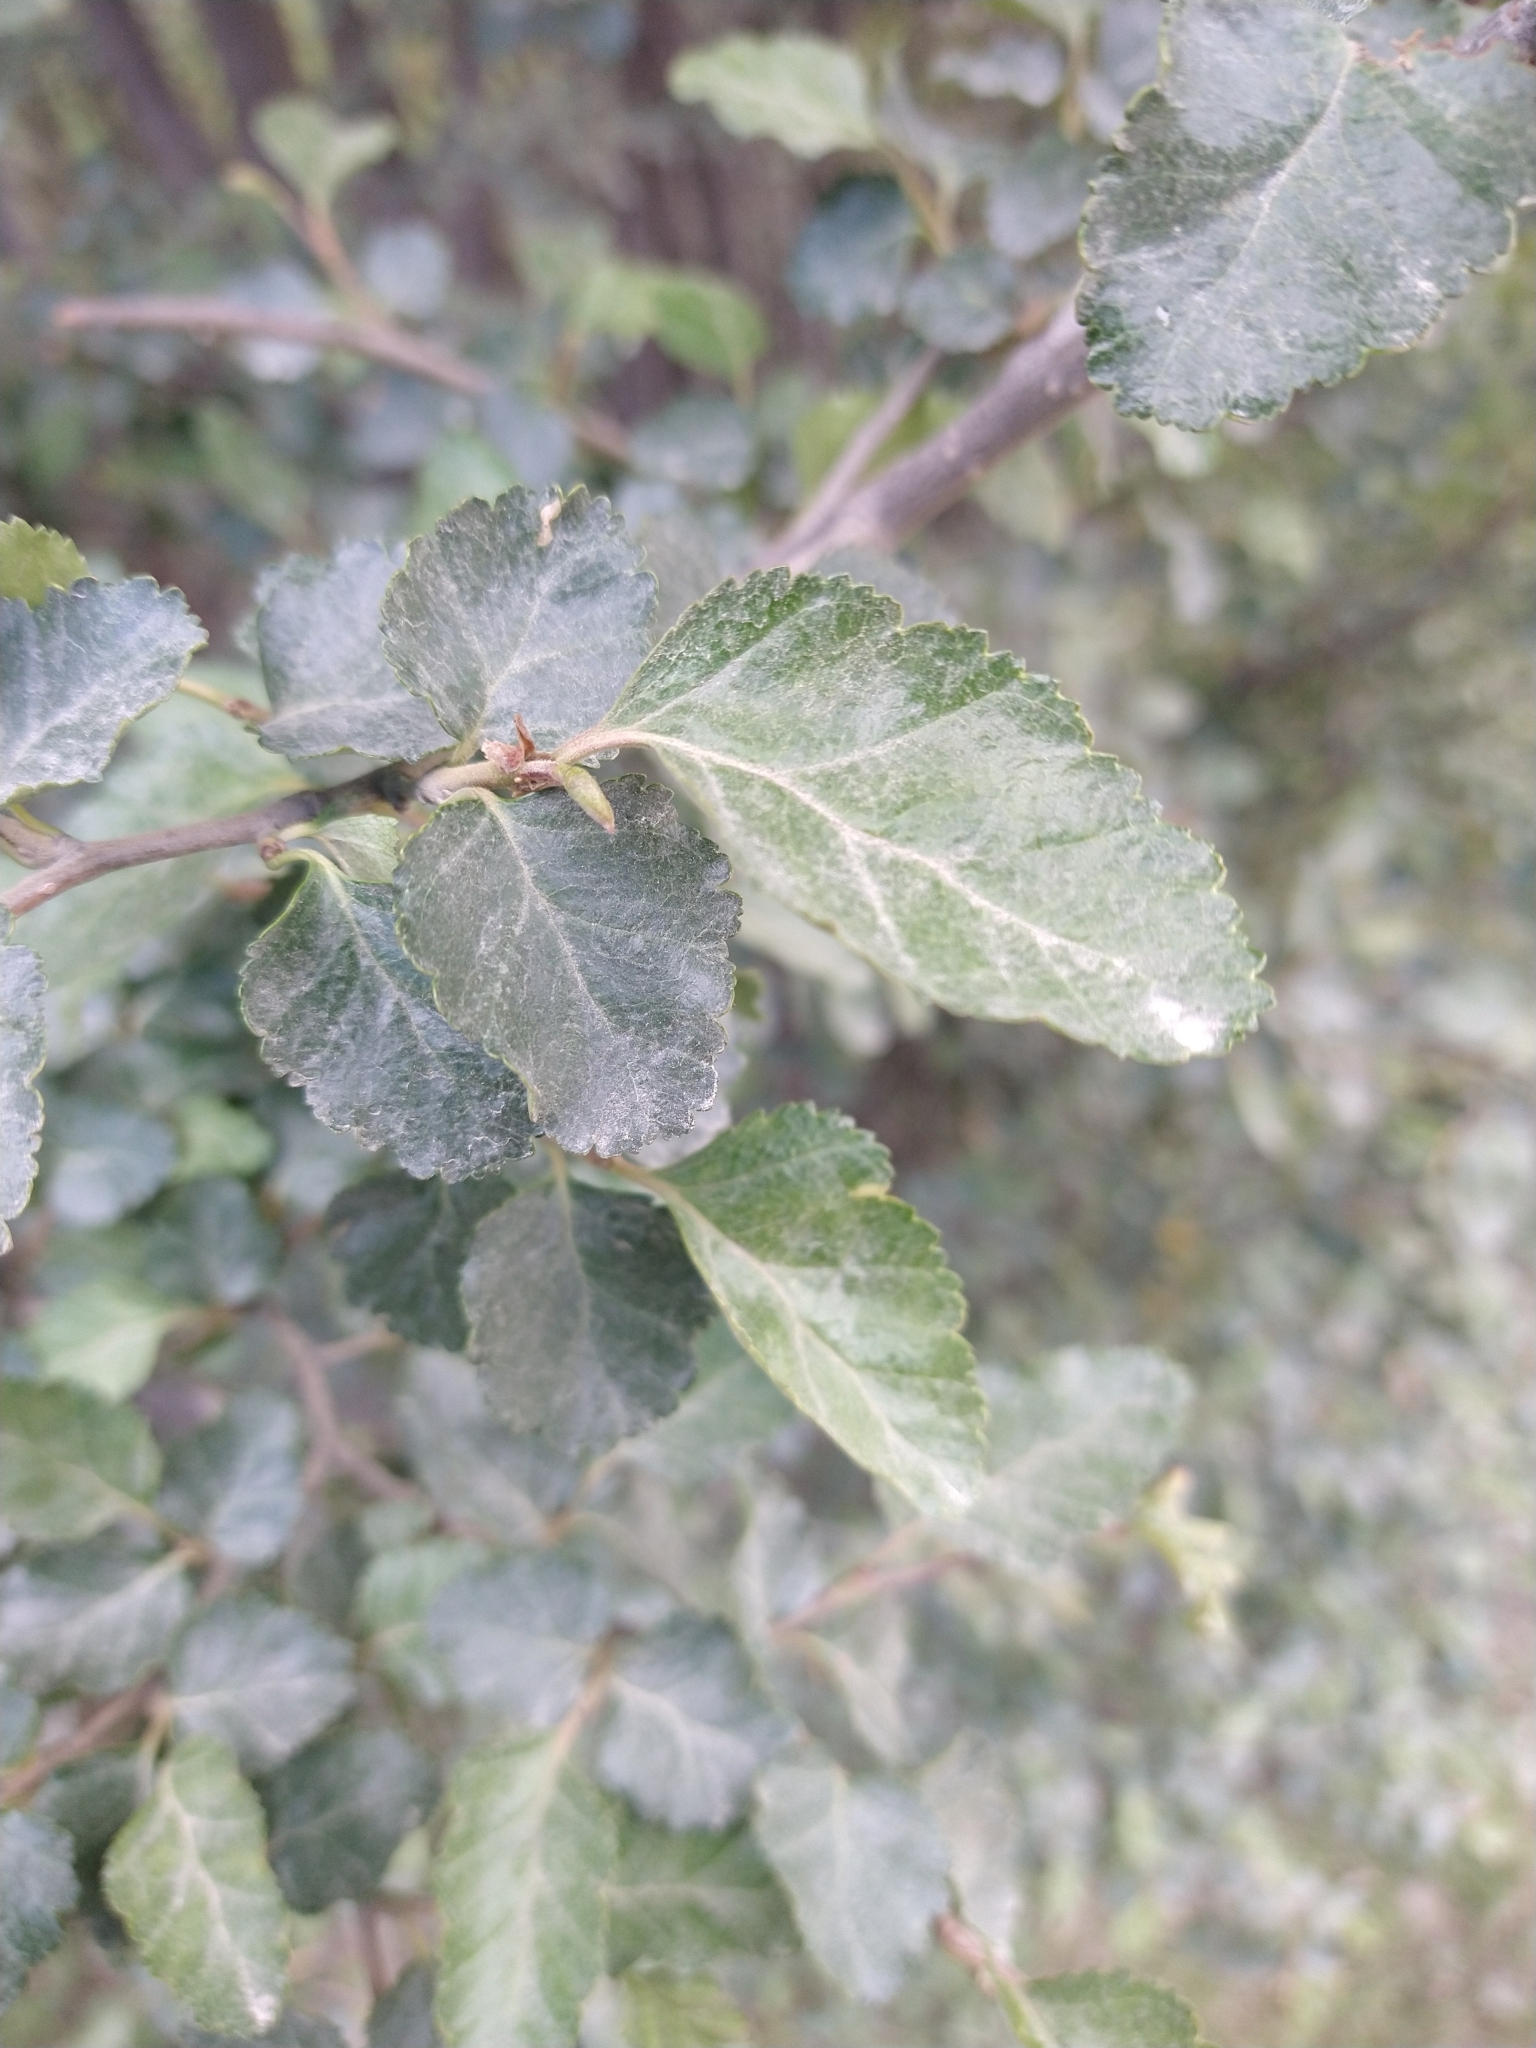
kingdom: Plantae
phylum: Tracheophyta
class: Magnoliopsida
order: Fagales
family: Nothofagaceae
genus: Nothofagus
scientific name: Nothofagus antarctica
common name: Antarctic beech
